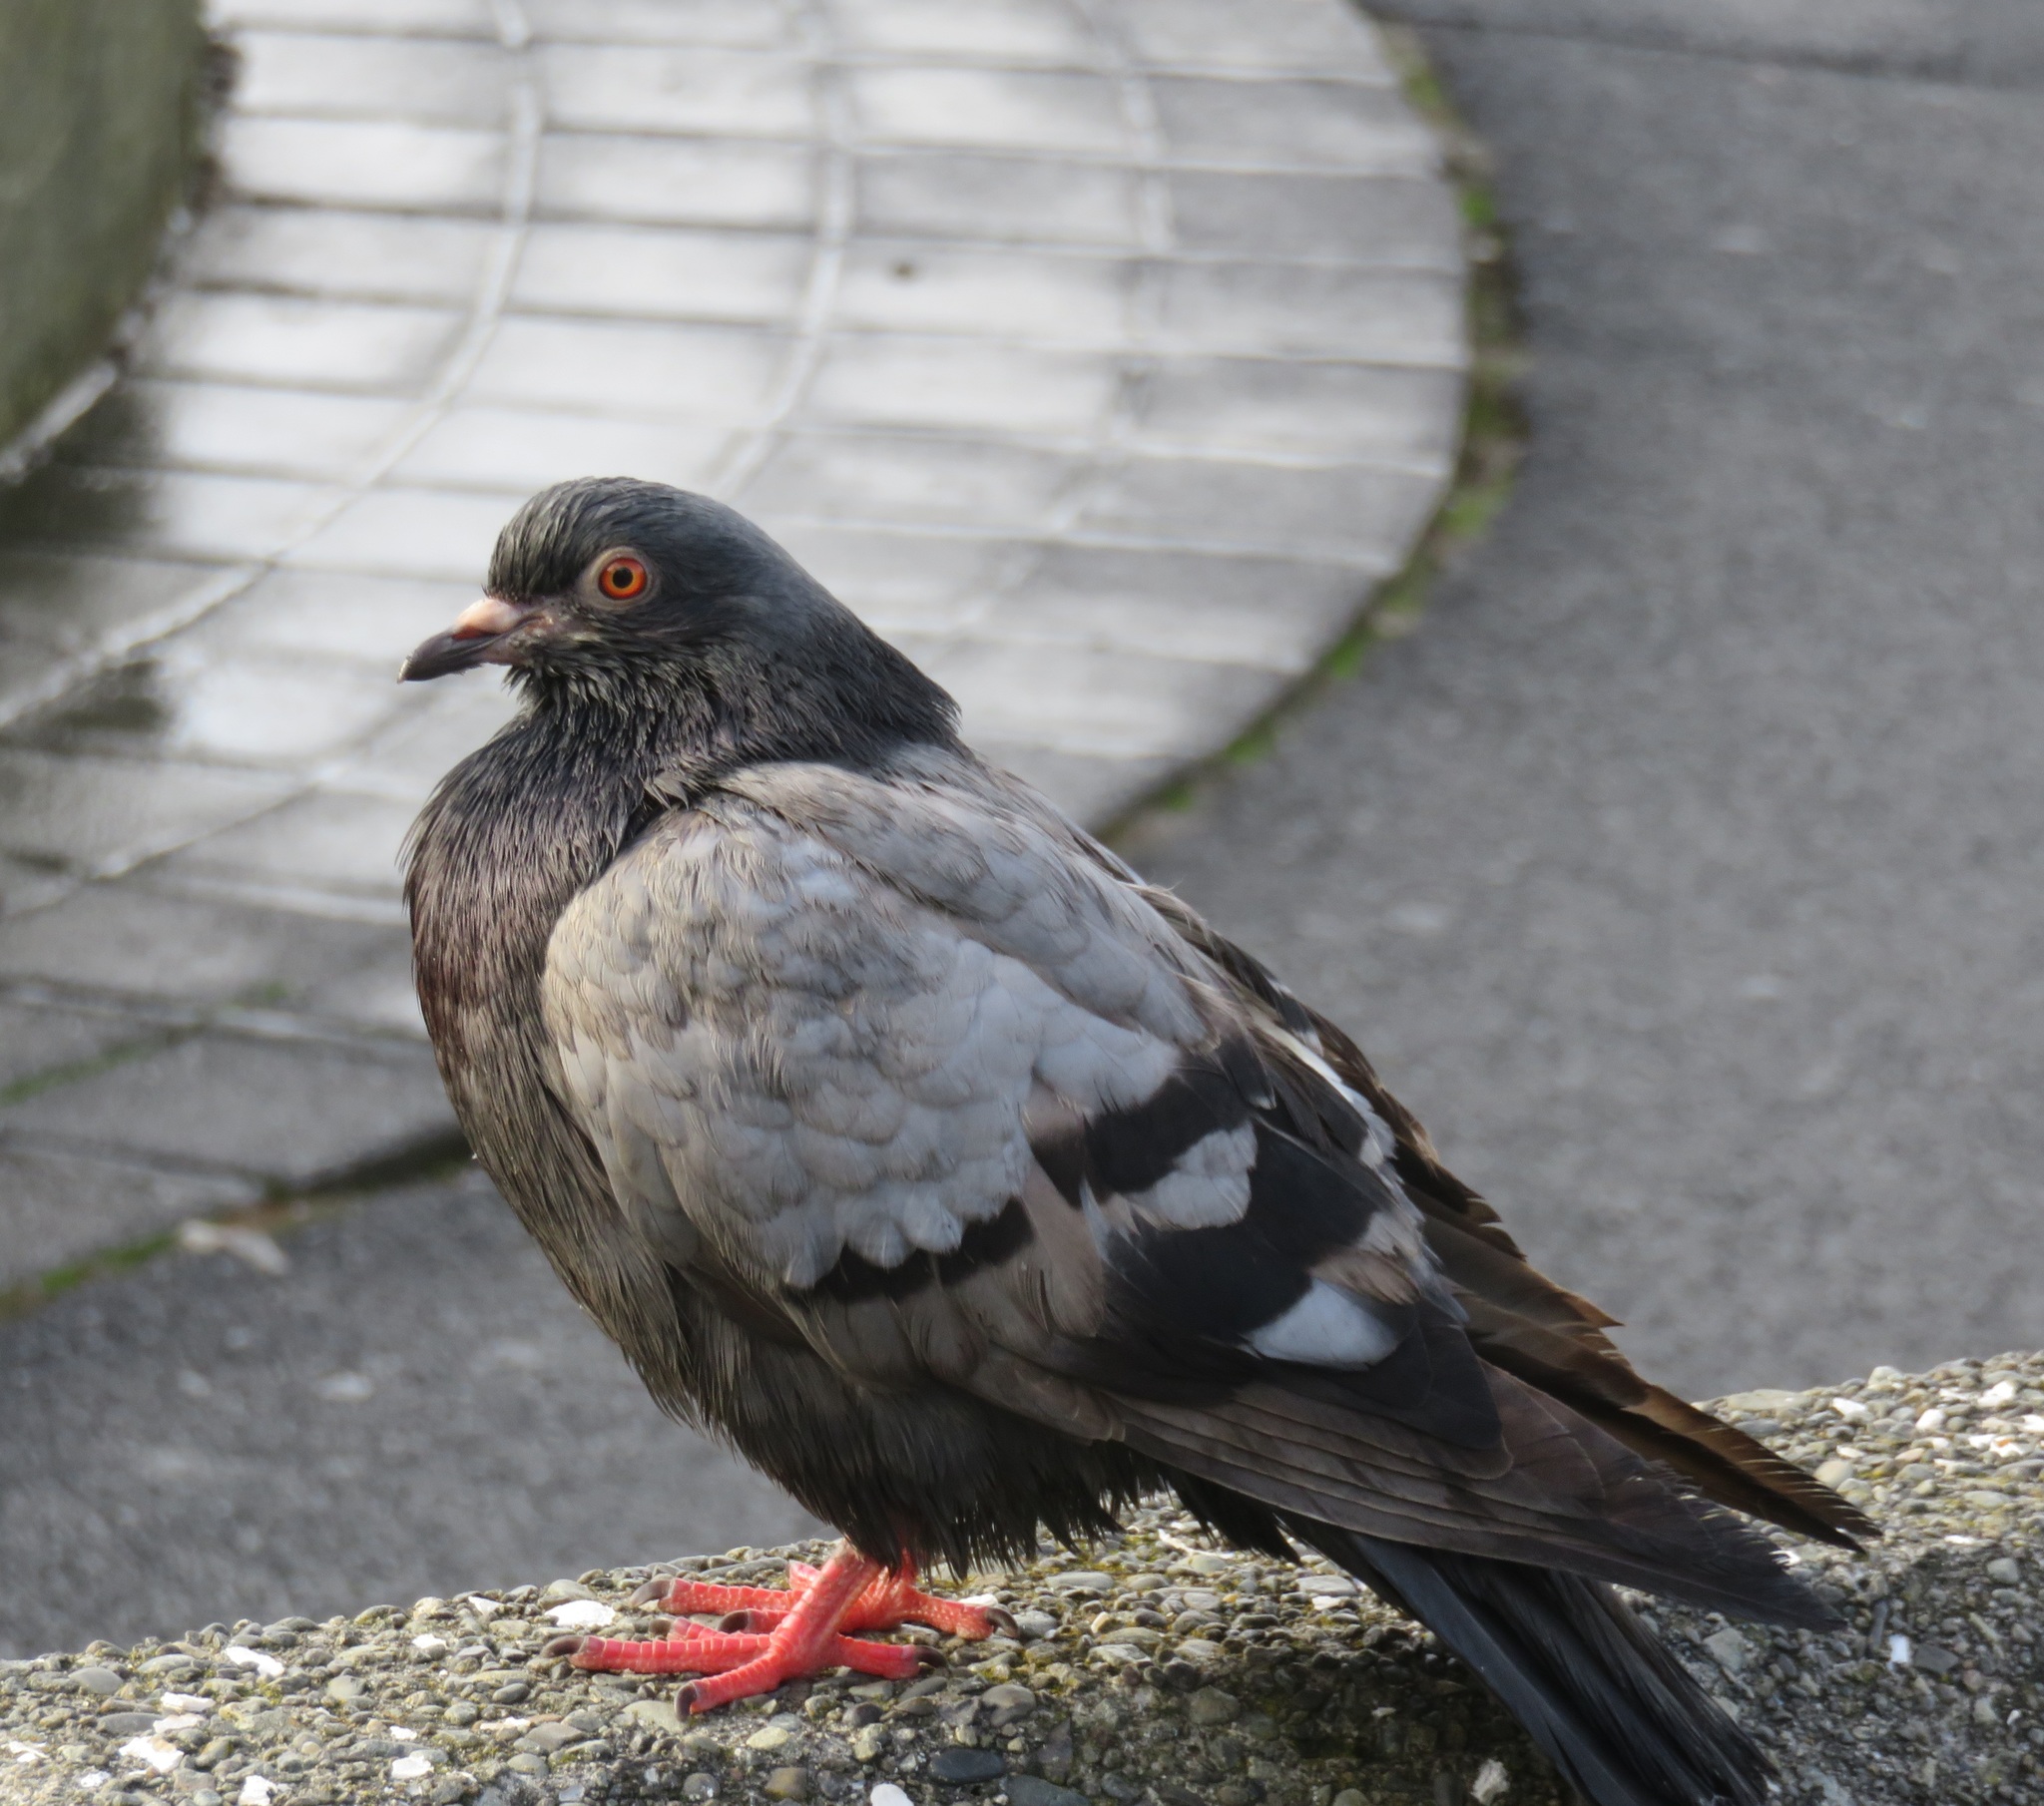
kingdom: Animalia
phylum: Chordata
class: Aves
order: Columbiformes
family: Columbidae
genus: Columba
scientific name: Columba livia
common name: Rock pigeon
